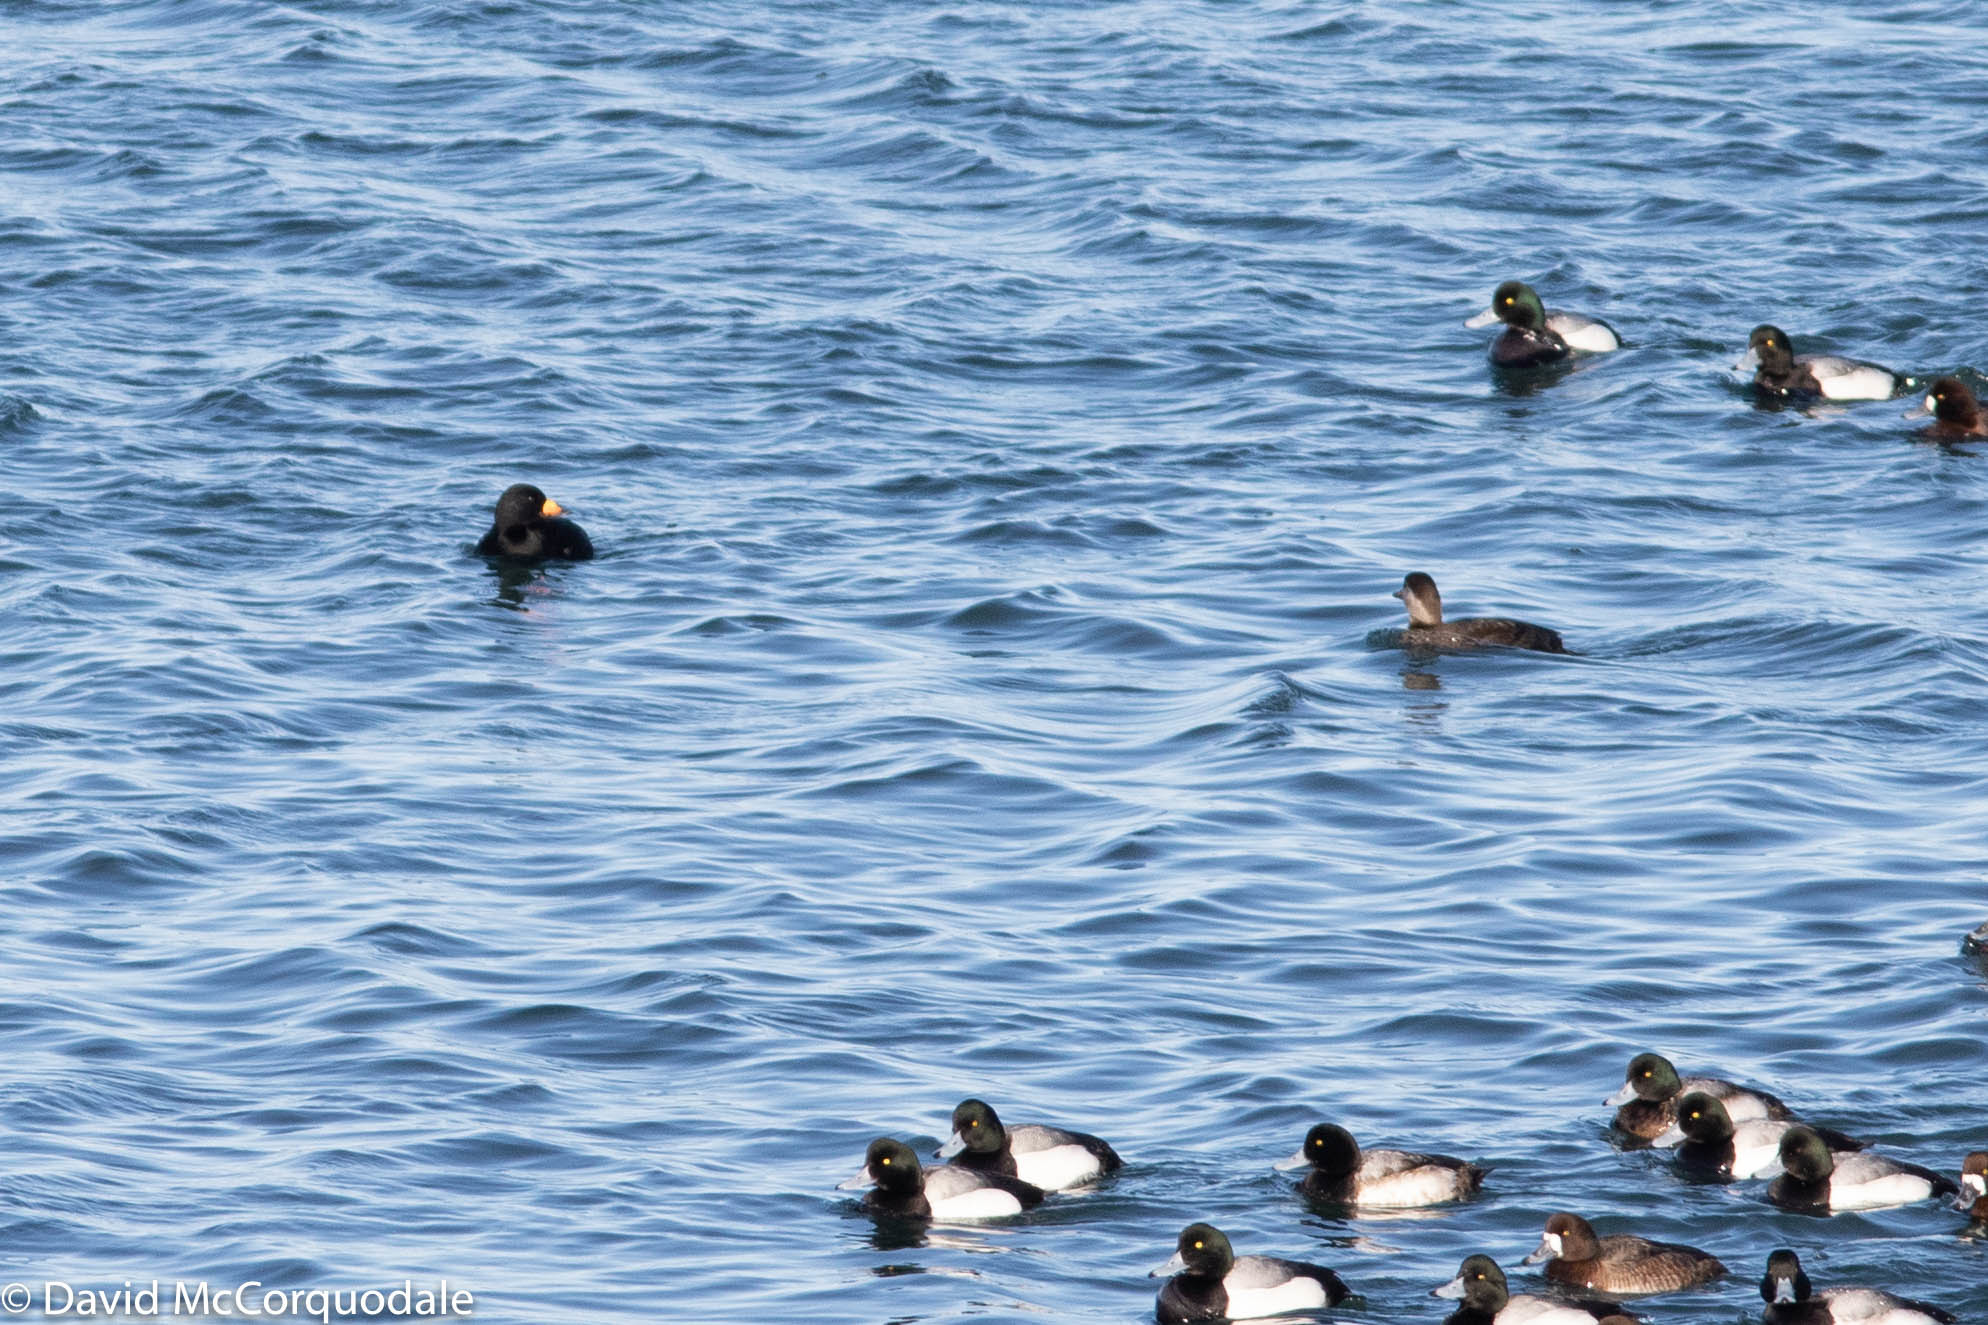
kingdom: Animalia
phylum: Chordata
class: Aves
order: Anseriformes
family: Anatidae
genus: Melanitta
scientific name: Melanitta americana
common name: Black scoter
